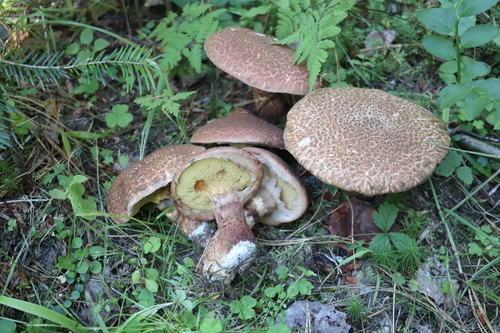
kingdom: Fungi
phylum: Basidiomycota
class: Agaricomycetes
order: Boletales
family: Suillaceae
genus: Suillus
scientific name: Suillus spraguei
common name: Painted suillus
